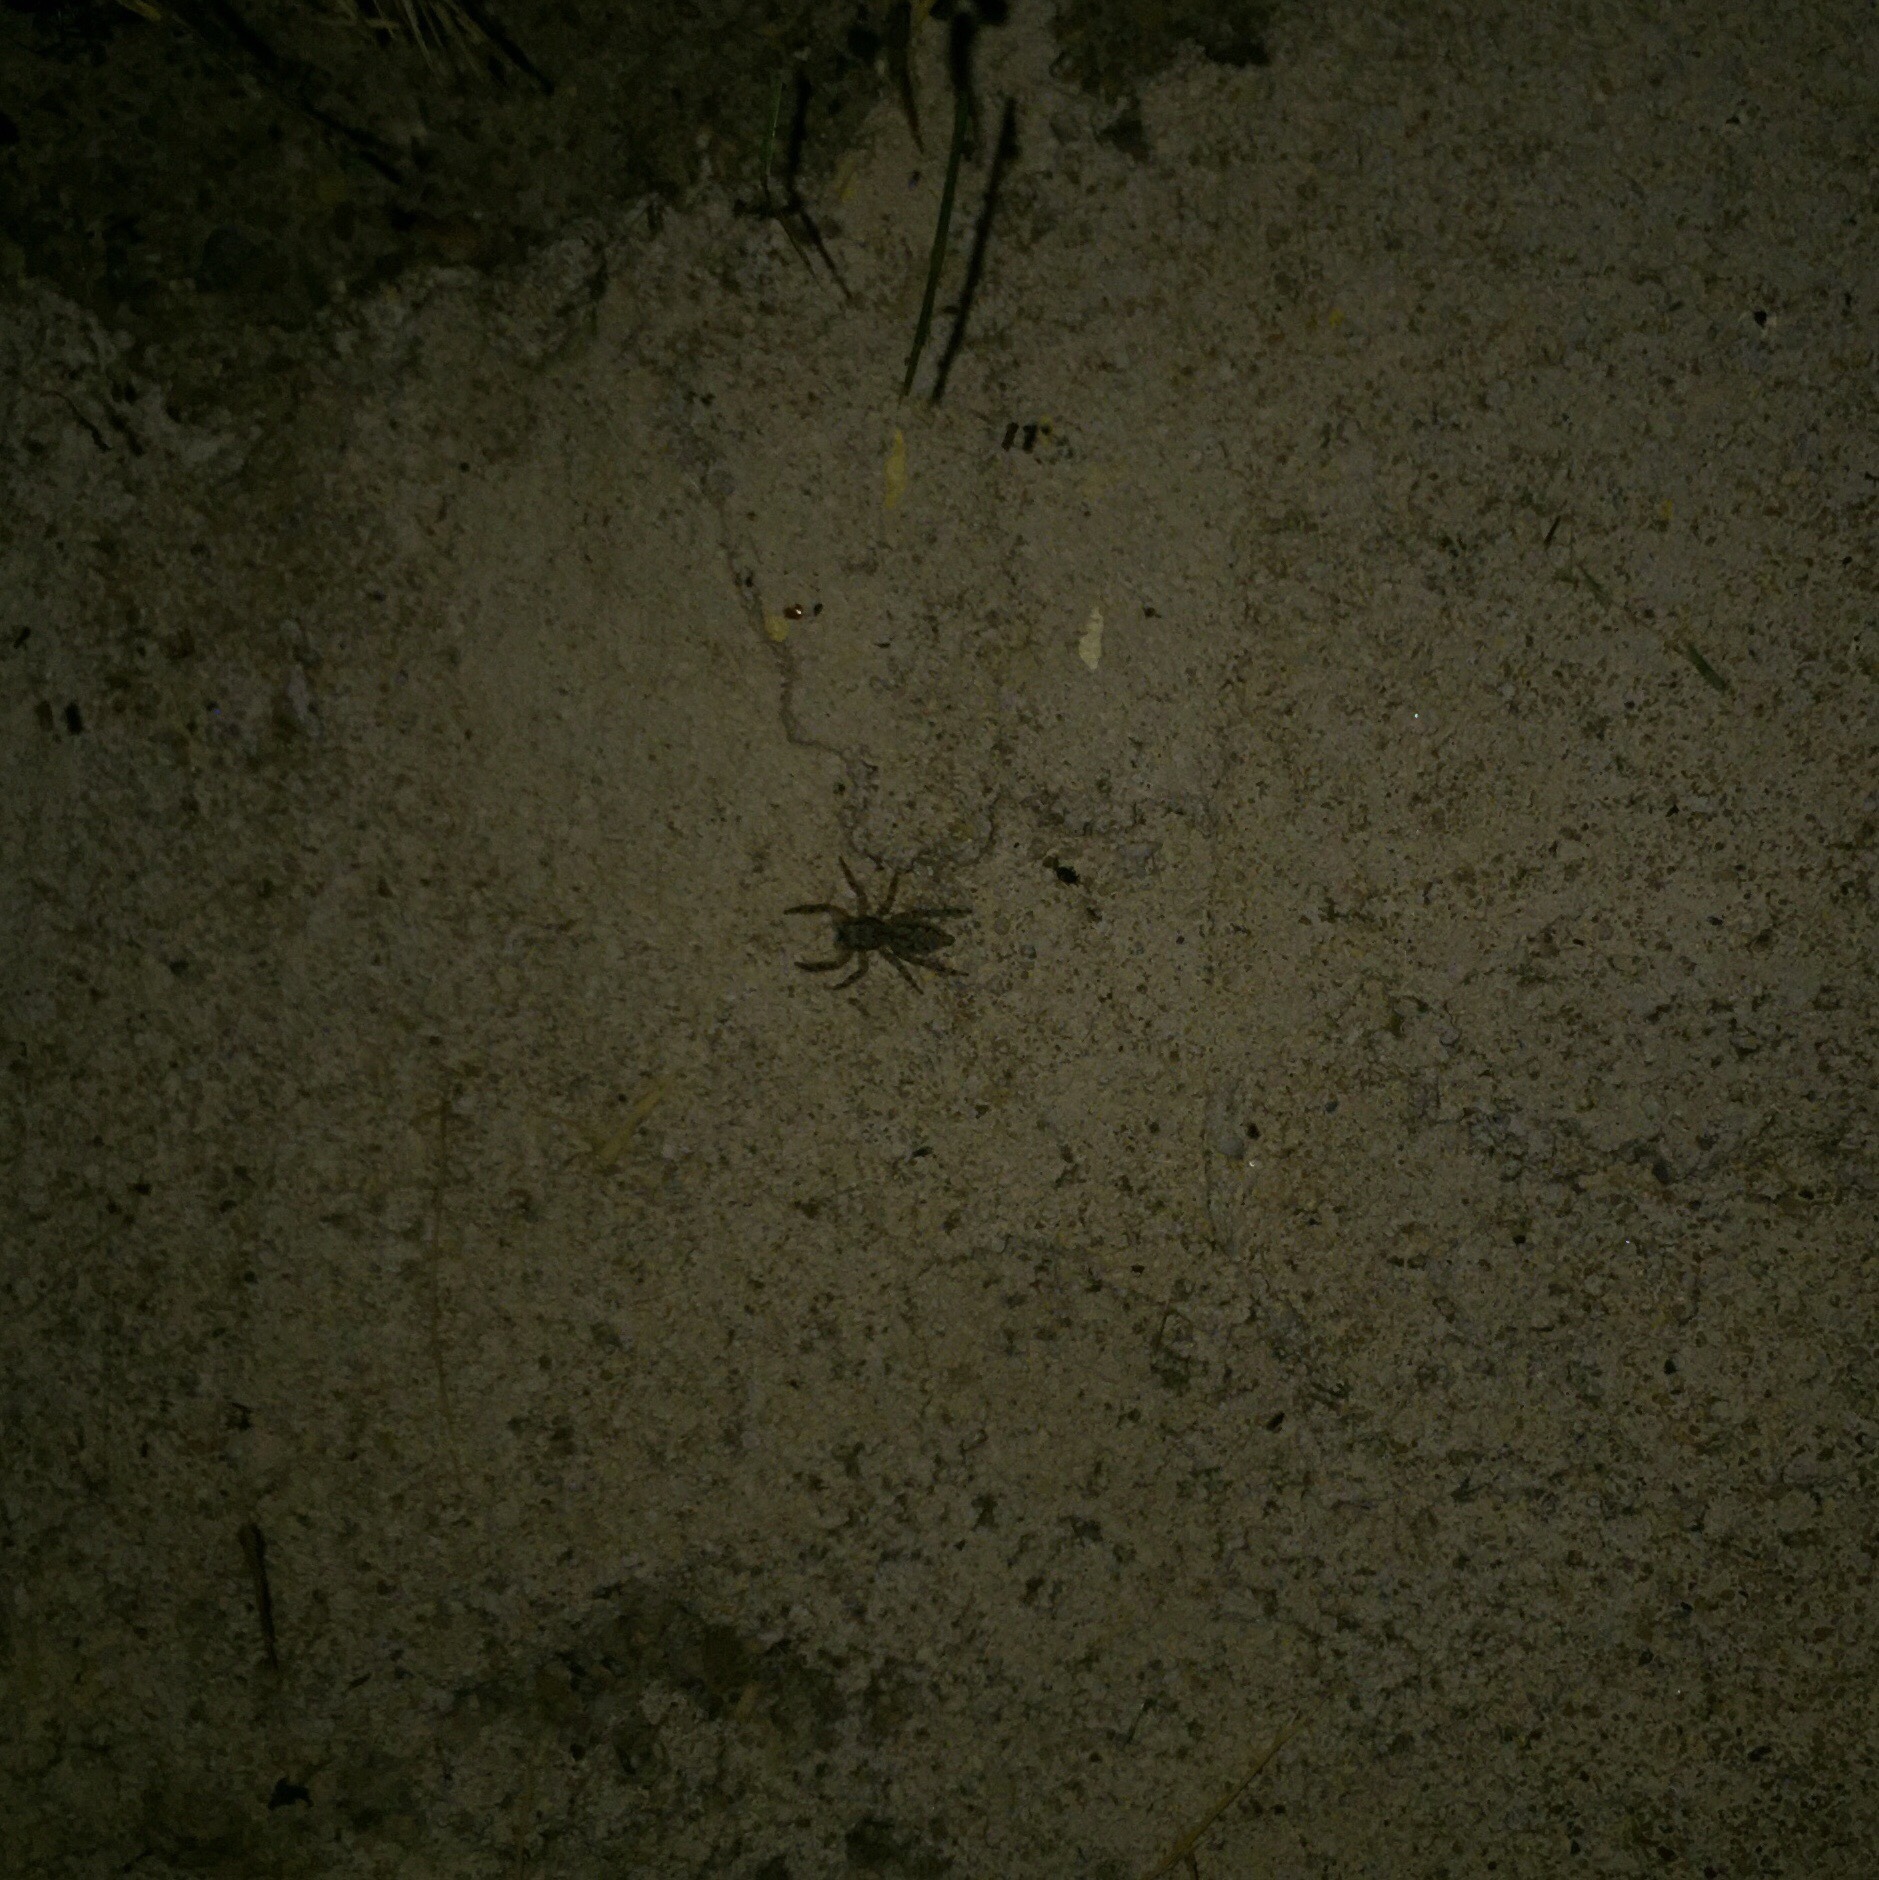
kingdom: Animalia
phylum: Arthropoda
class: Arachnida
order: Araneae
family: Salticidae
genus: Platycryptus
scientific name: Platycryptus undatus
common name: Tan jumping spider
